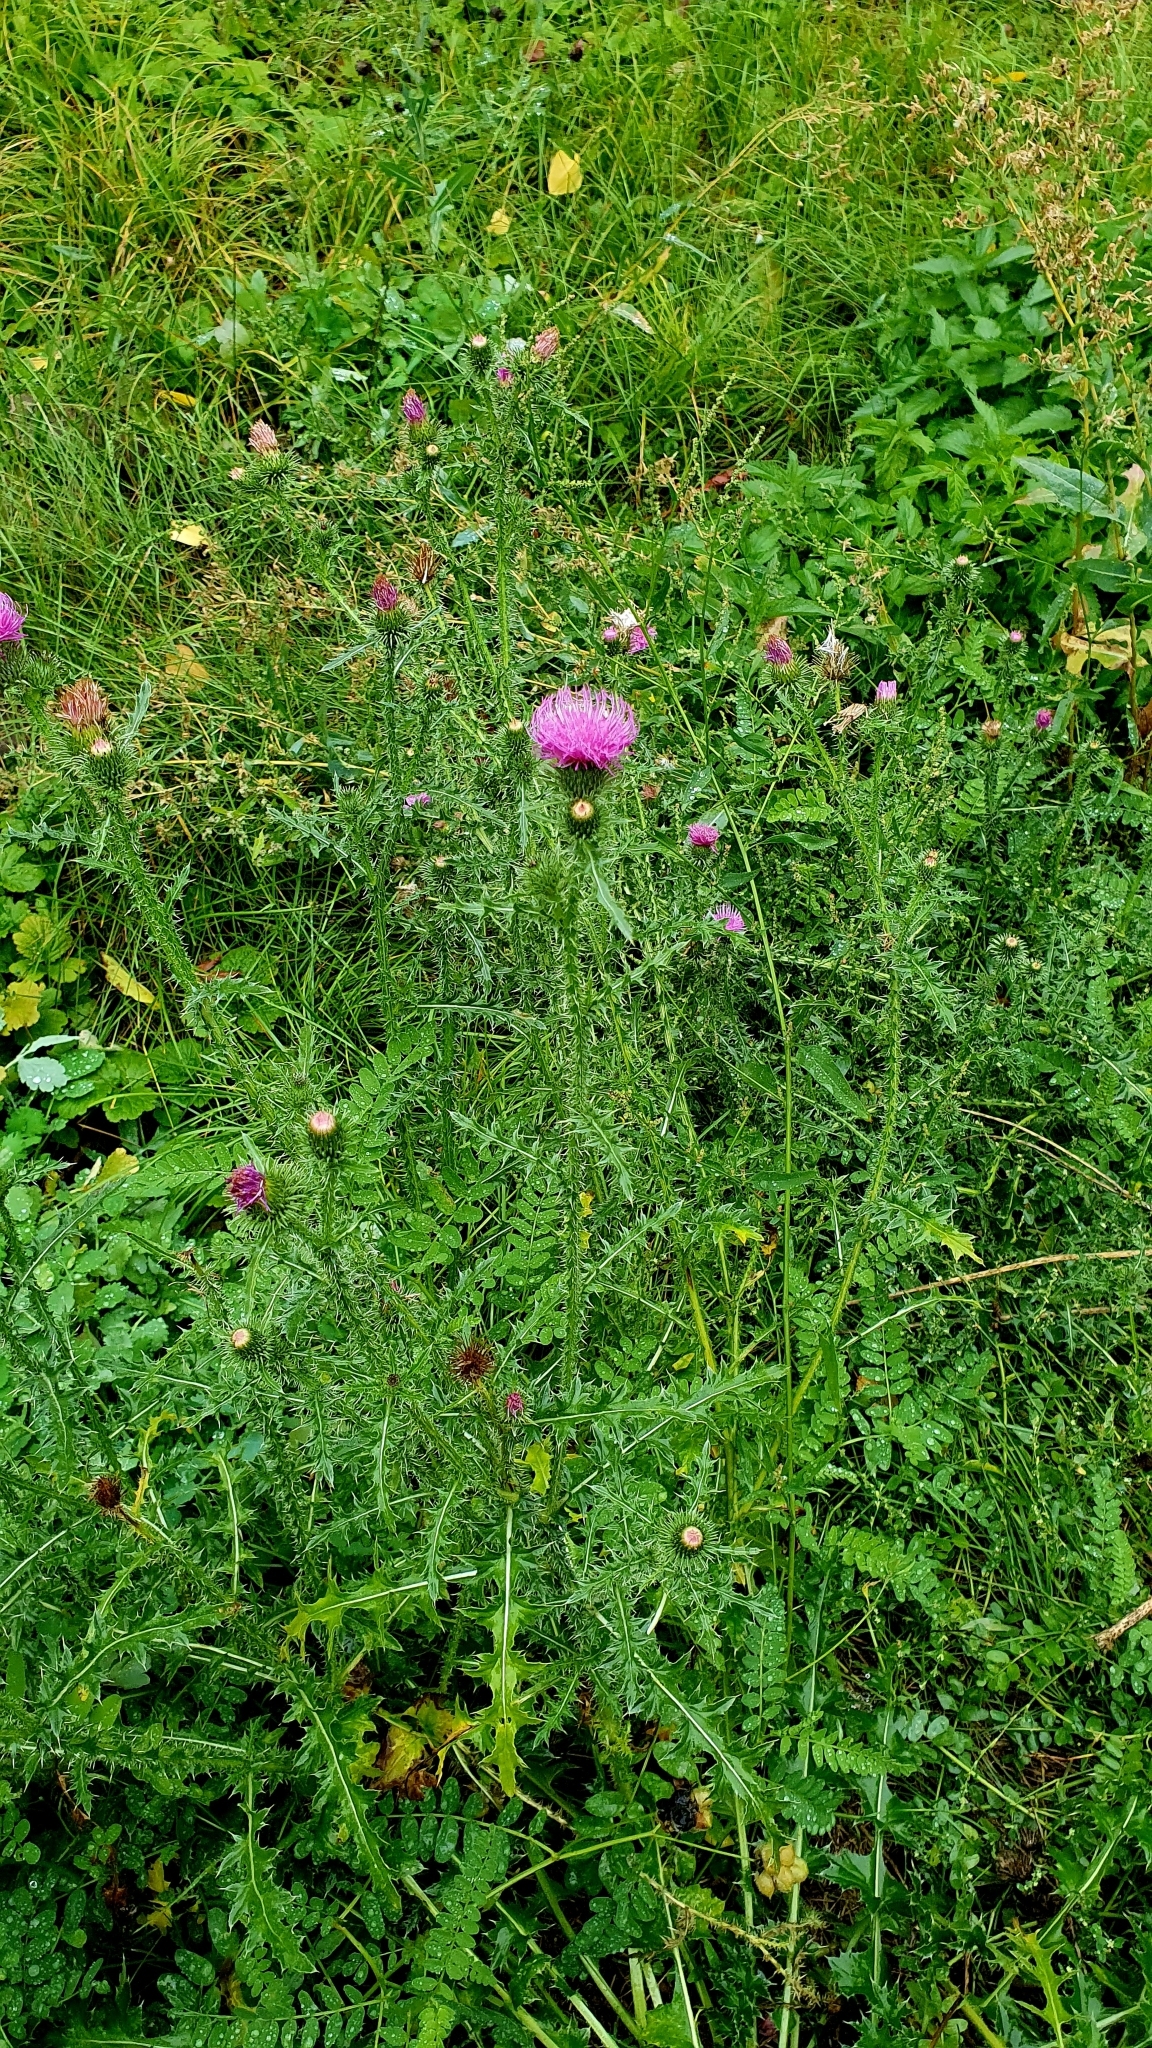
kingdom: Plantae
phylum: Tracheophyta
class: Magnoliopsida
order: Asterales
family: Asteraceae
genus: Carduus
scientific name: Carduus acanthoides
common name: Plumeless thistle
